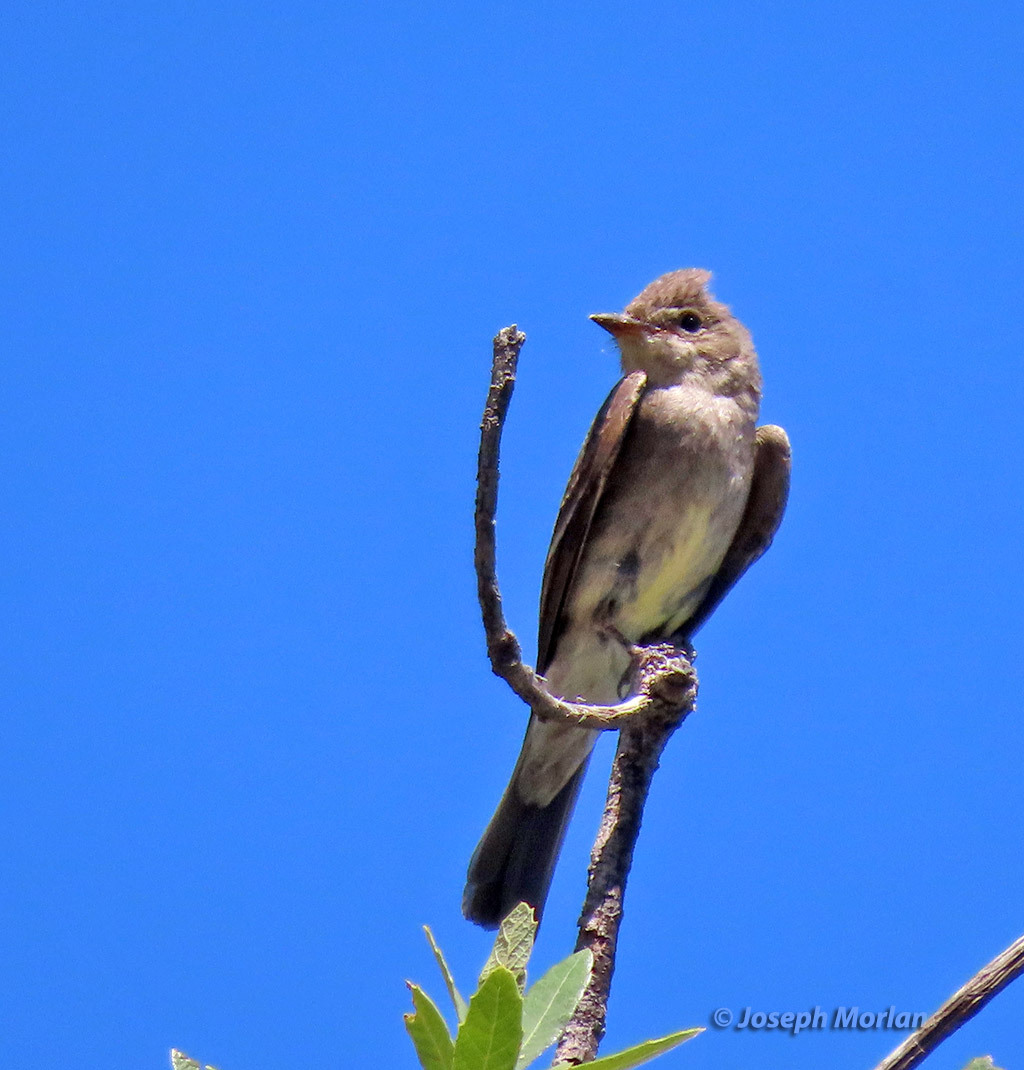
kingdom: Animalia
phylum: Chordata
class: Aves
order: Passeriformes
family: Tyrannidae
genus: Contopus
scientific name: Contopus sordidulus
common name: Western wood-pewee
